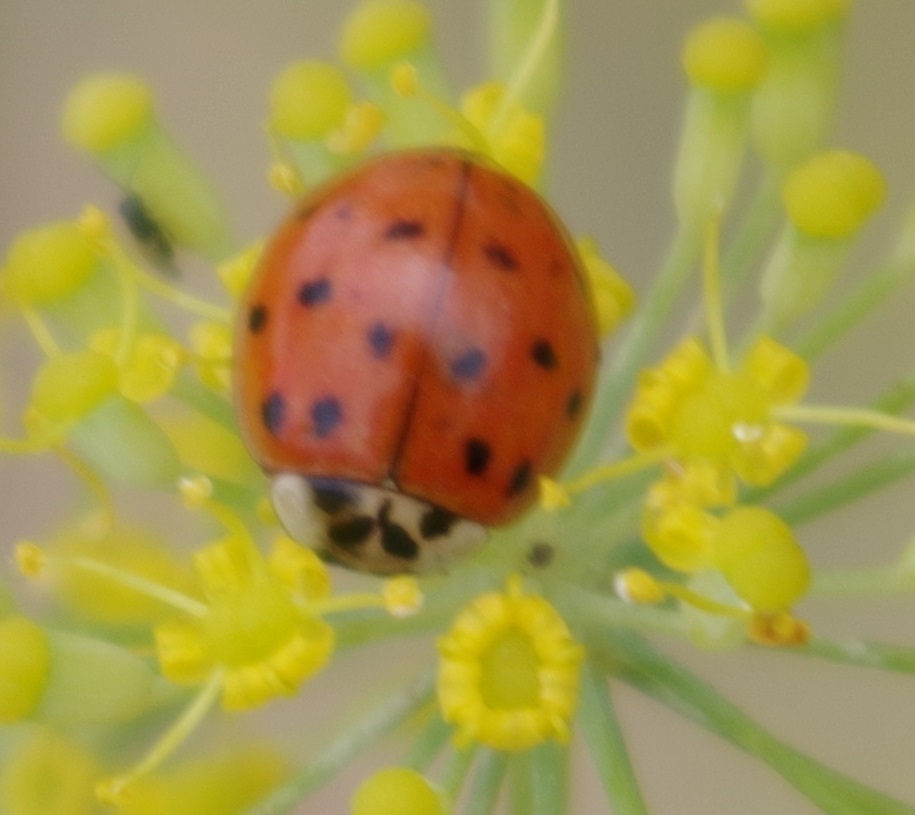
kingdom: Animalia
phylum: Arthropoda
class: Insecta
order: Coleoptera
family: Coccinellidae
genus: Harmonia
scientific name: Harmonia axyridis
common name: Harlequin ladybird
